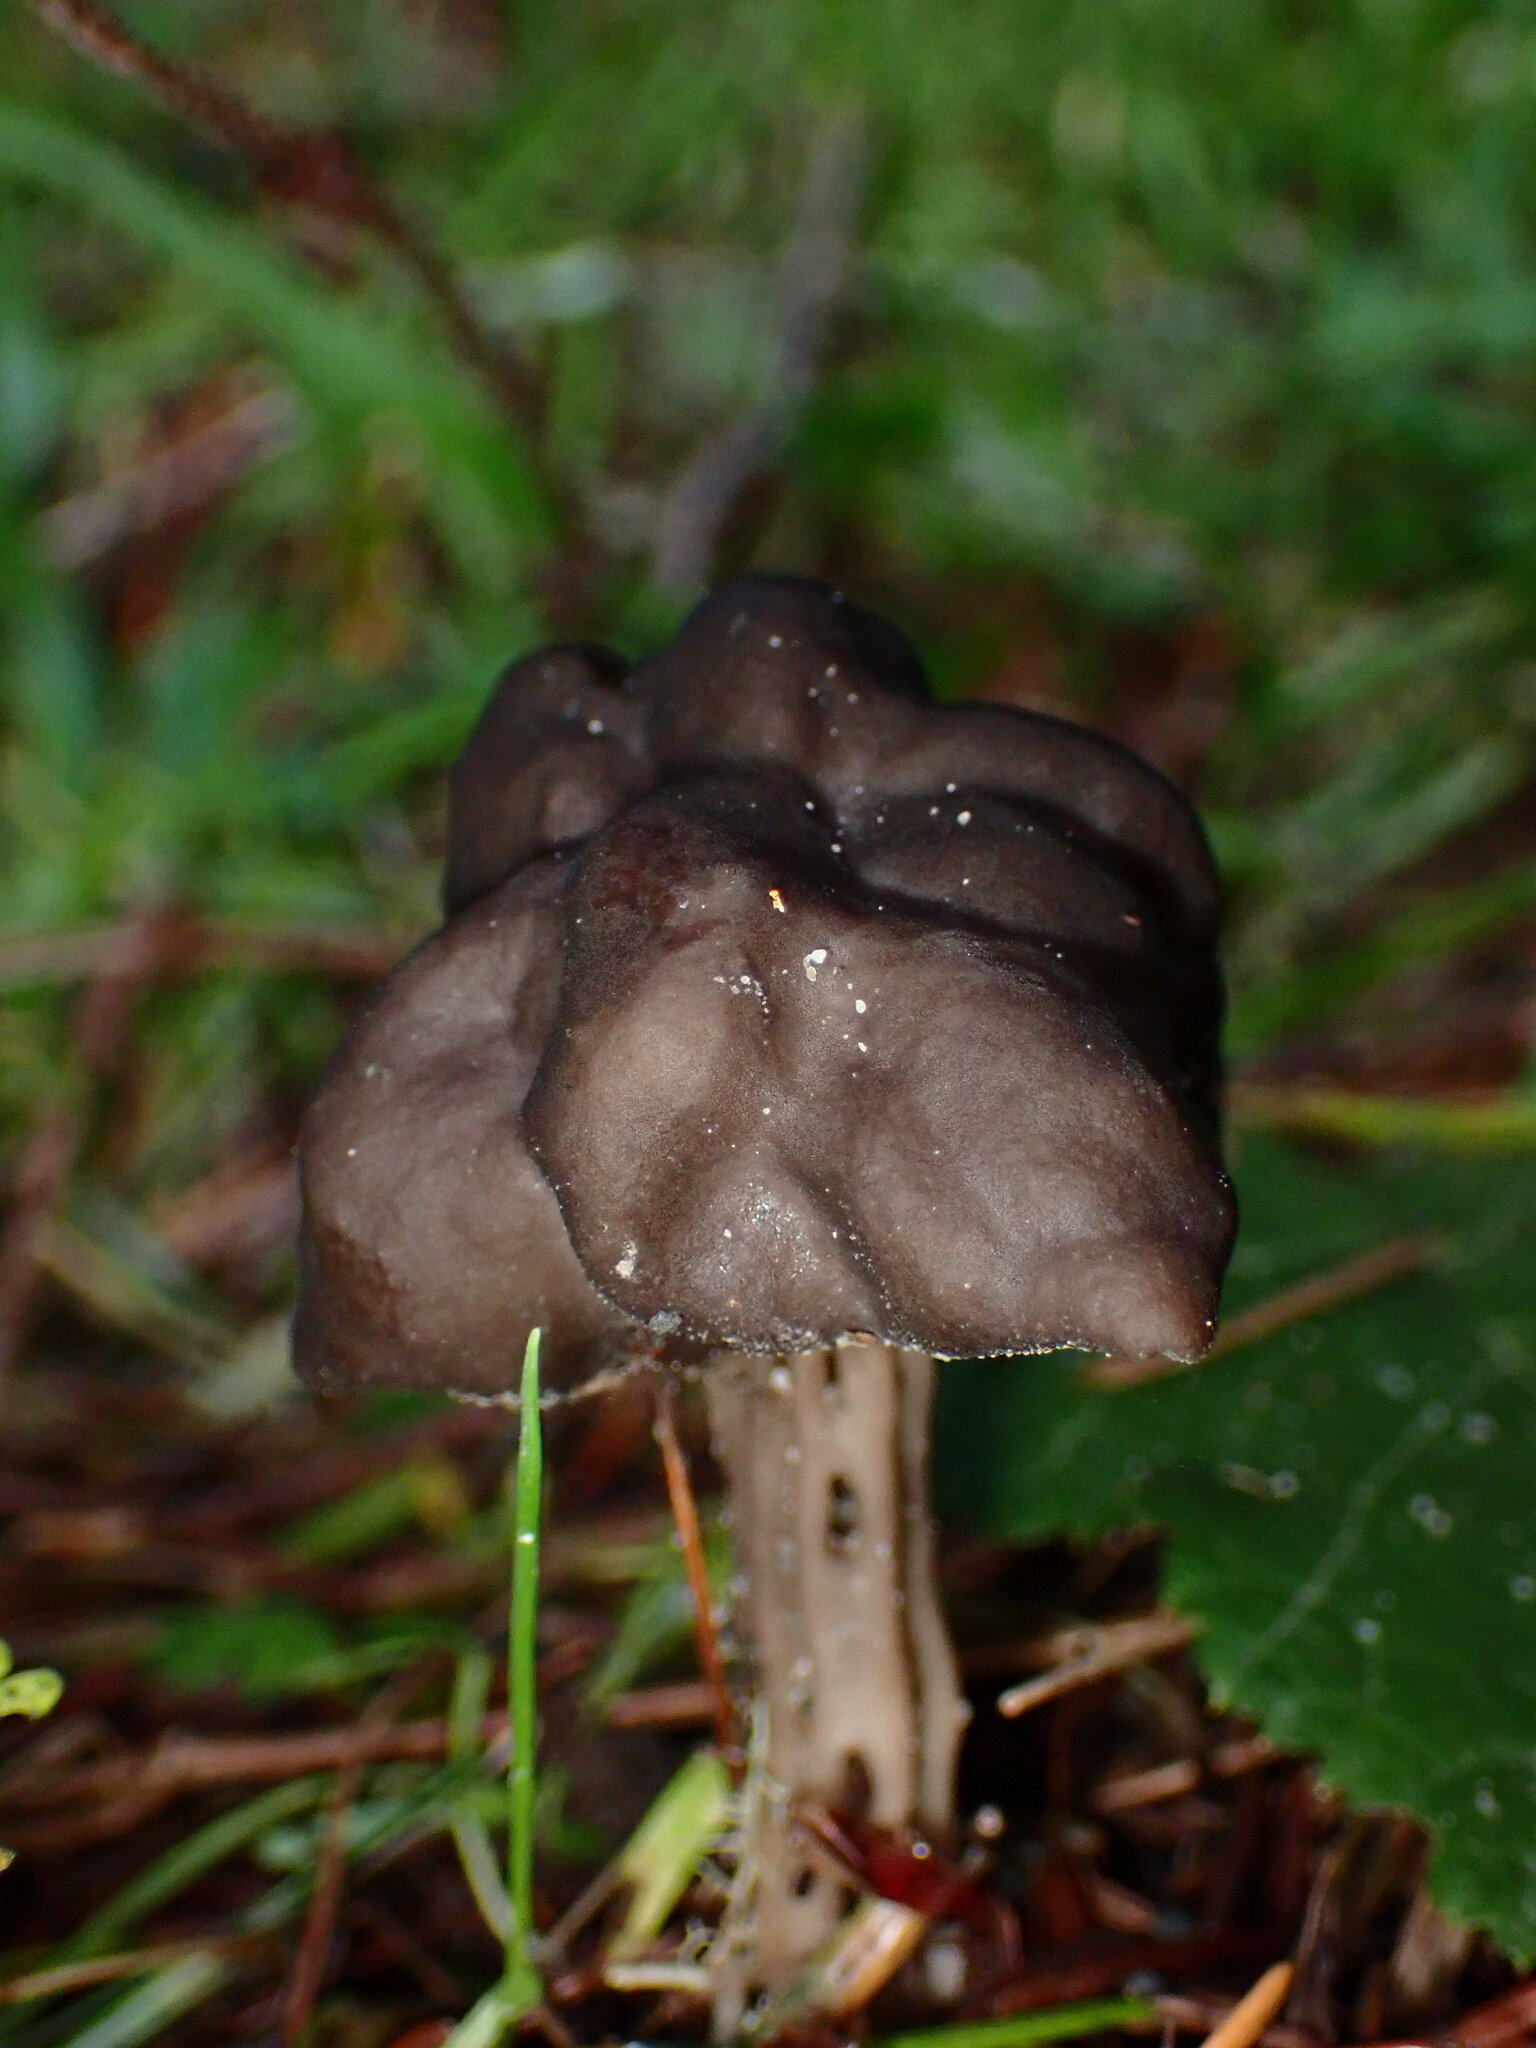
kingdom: Fungi
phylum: Ascomycota
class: Pezizomycetes
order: Pezizales
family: Helvellaceae
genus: Helvella
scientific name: Helvella vespertina
